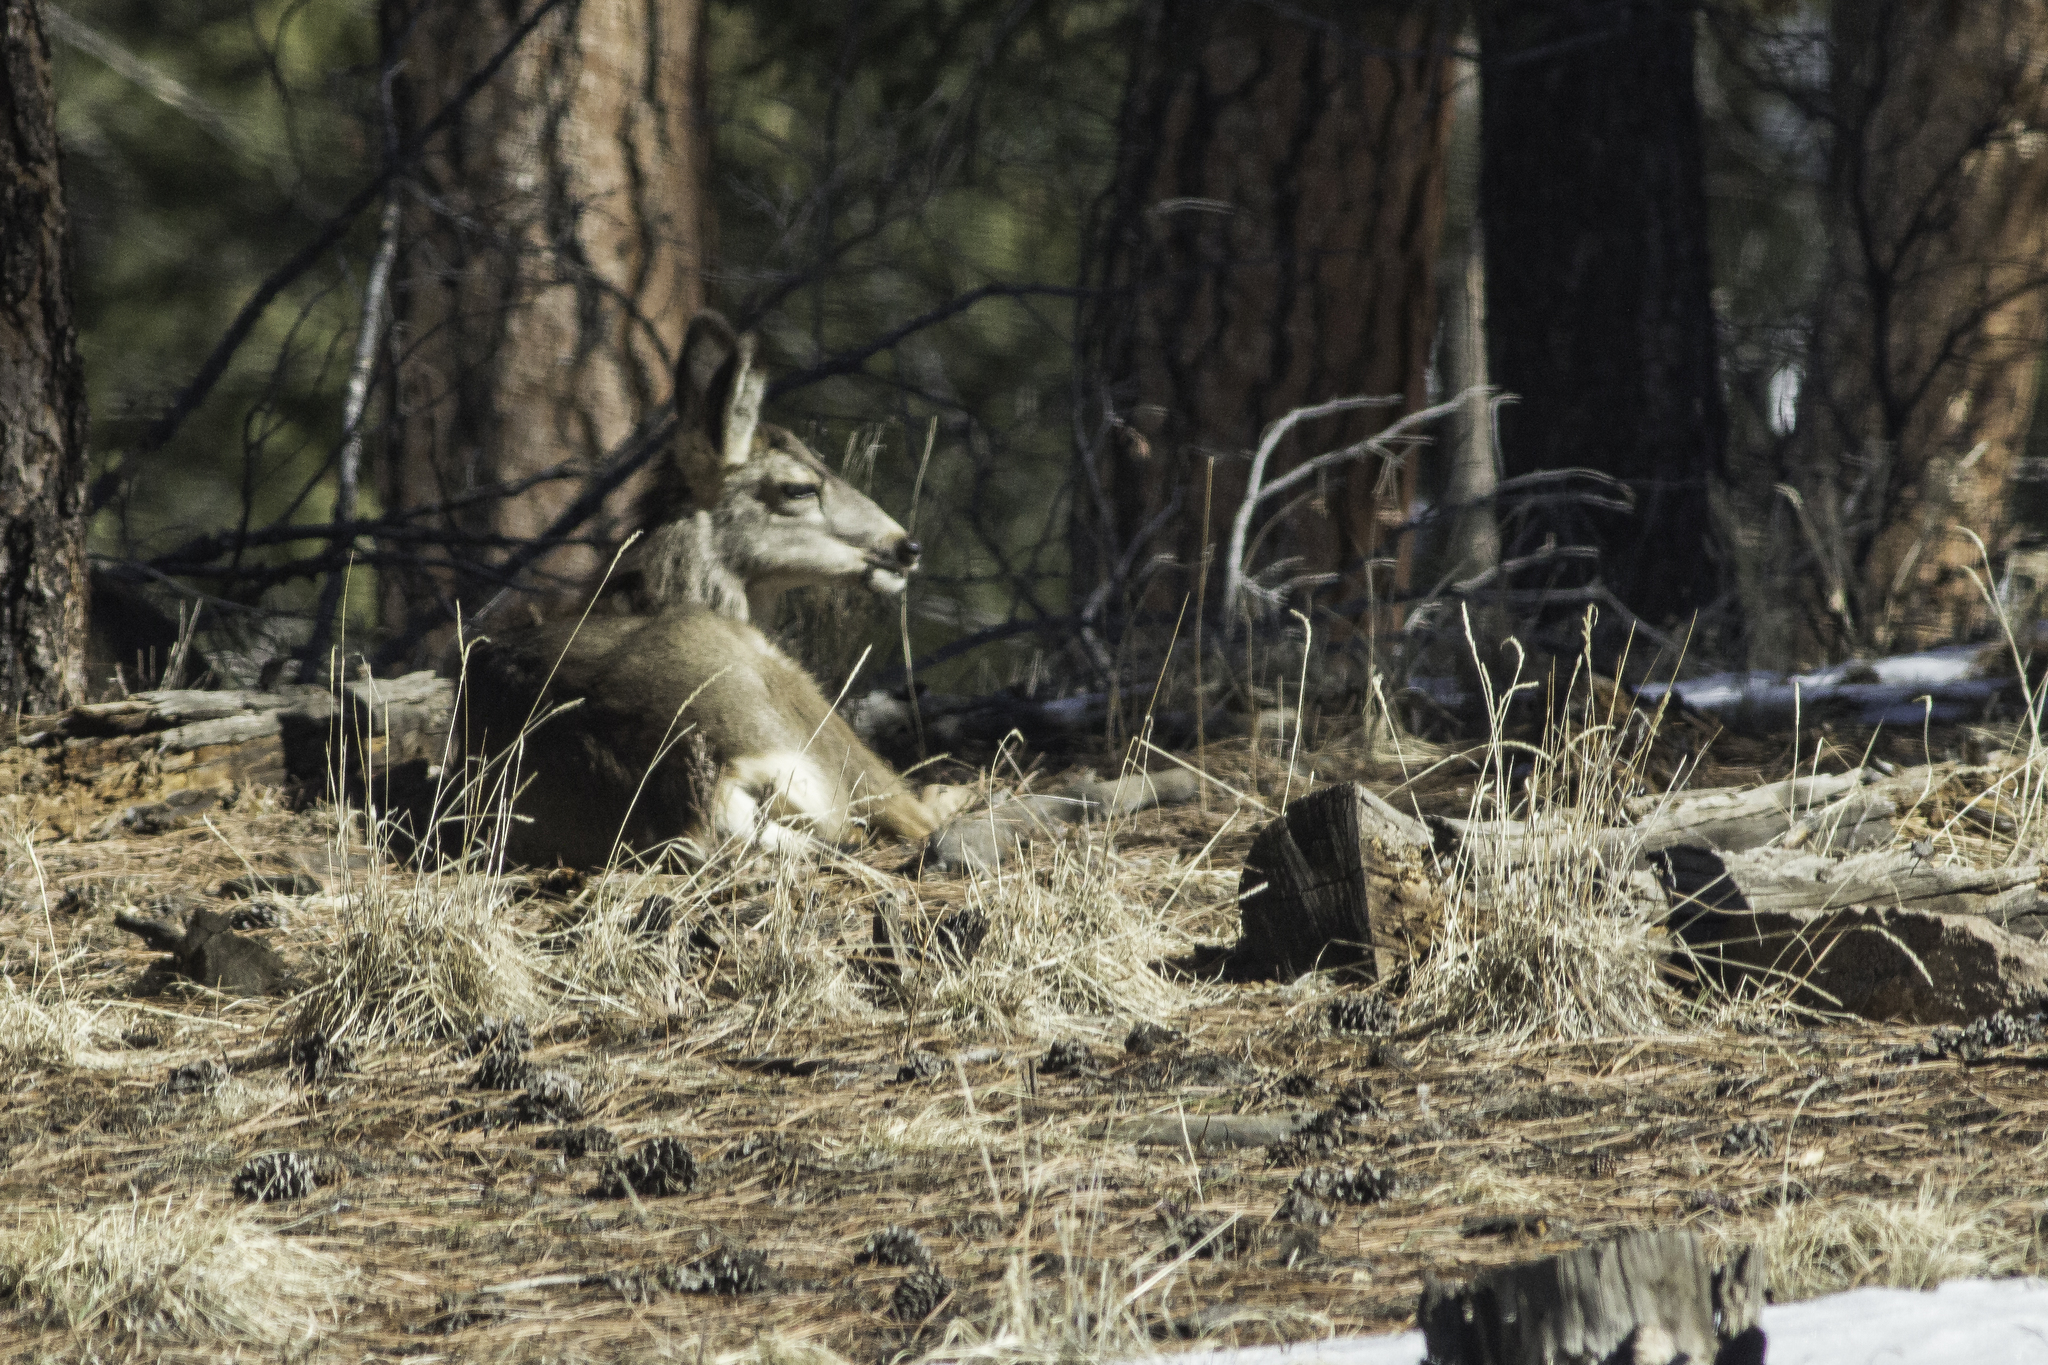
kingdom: Animalia
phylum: Chordata
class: Mammalia
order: Artiodactyla
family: Cervidae
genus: Odocoileus
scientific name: Odocoileus hemionus
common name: Mule deer
